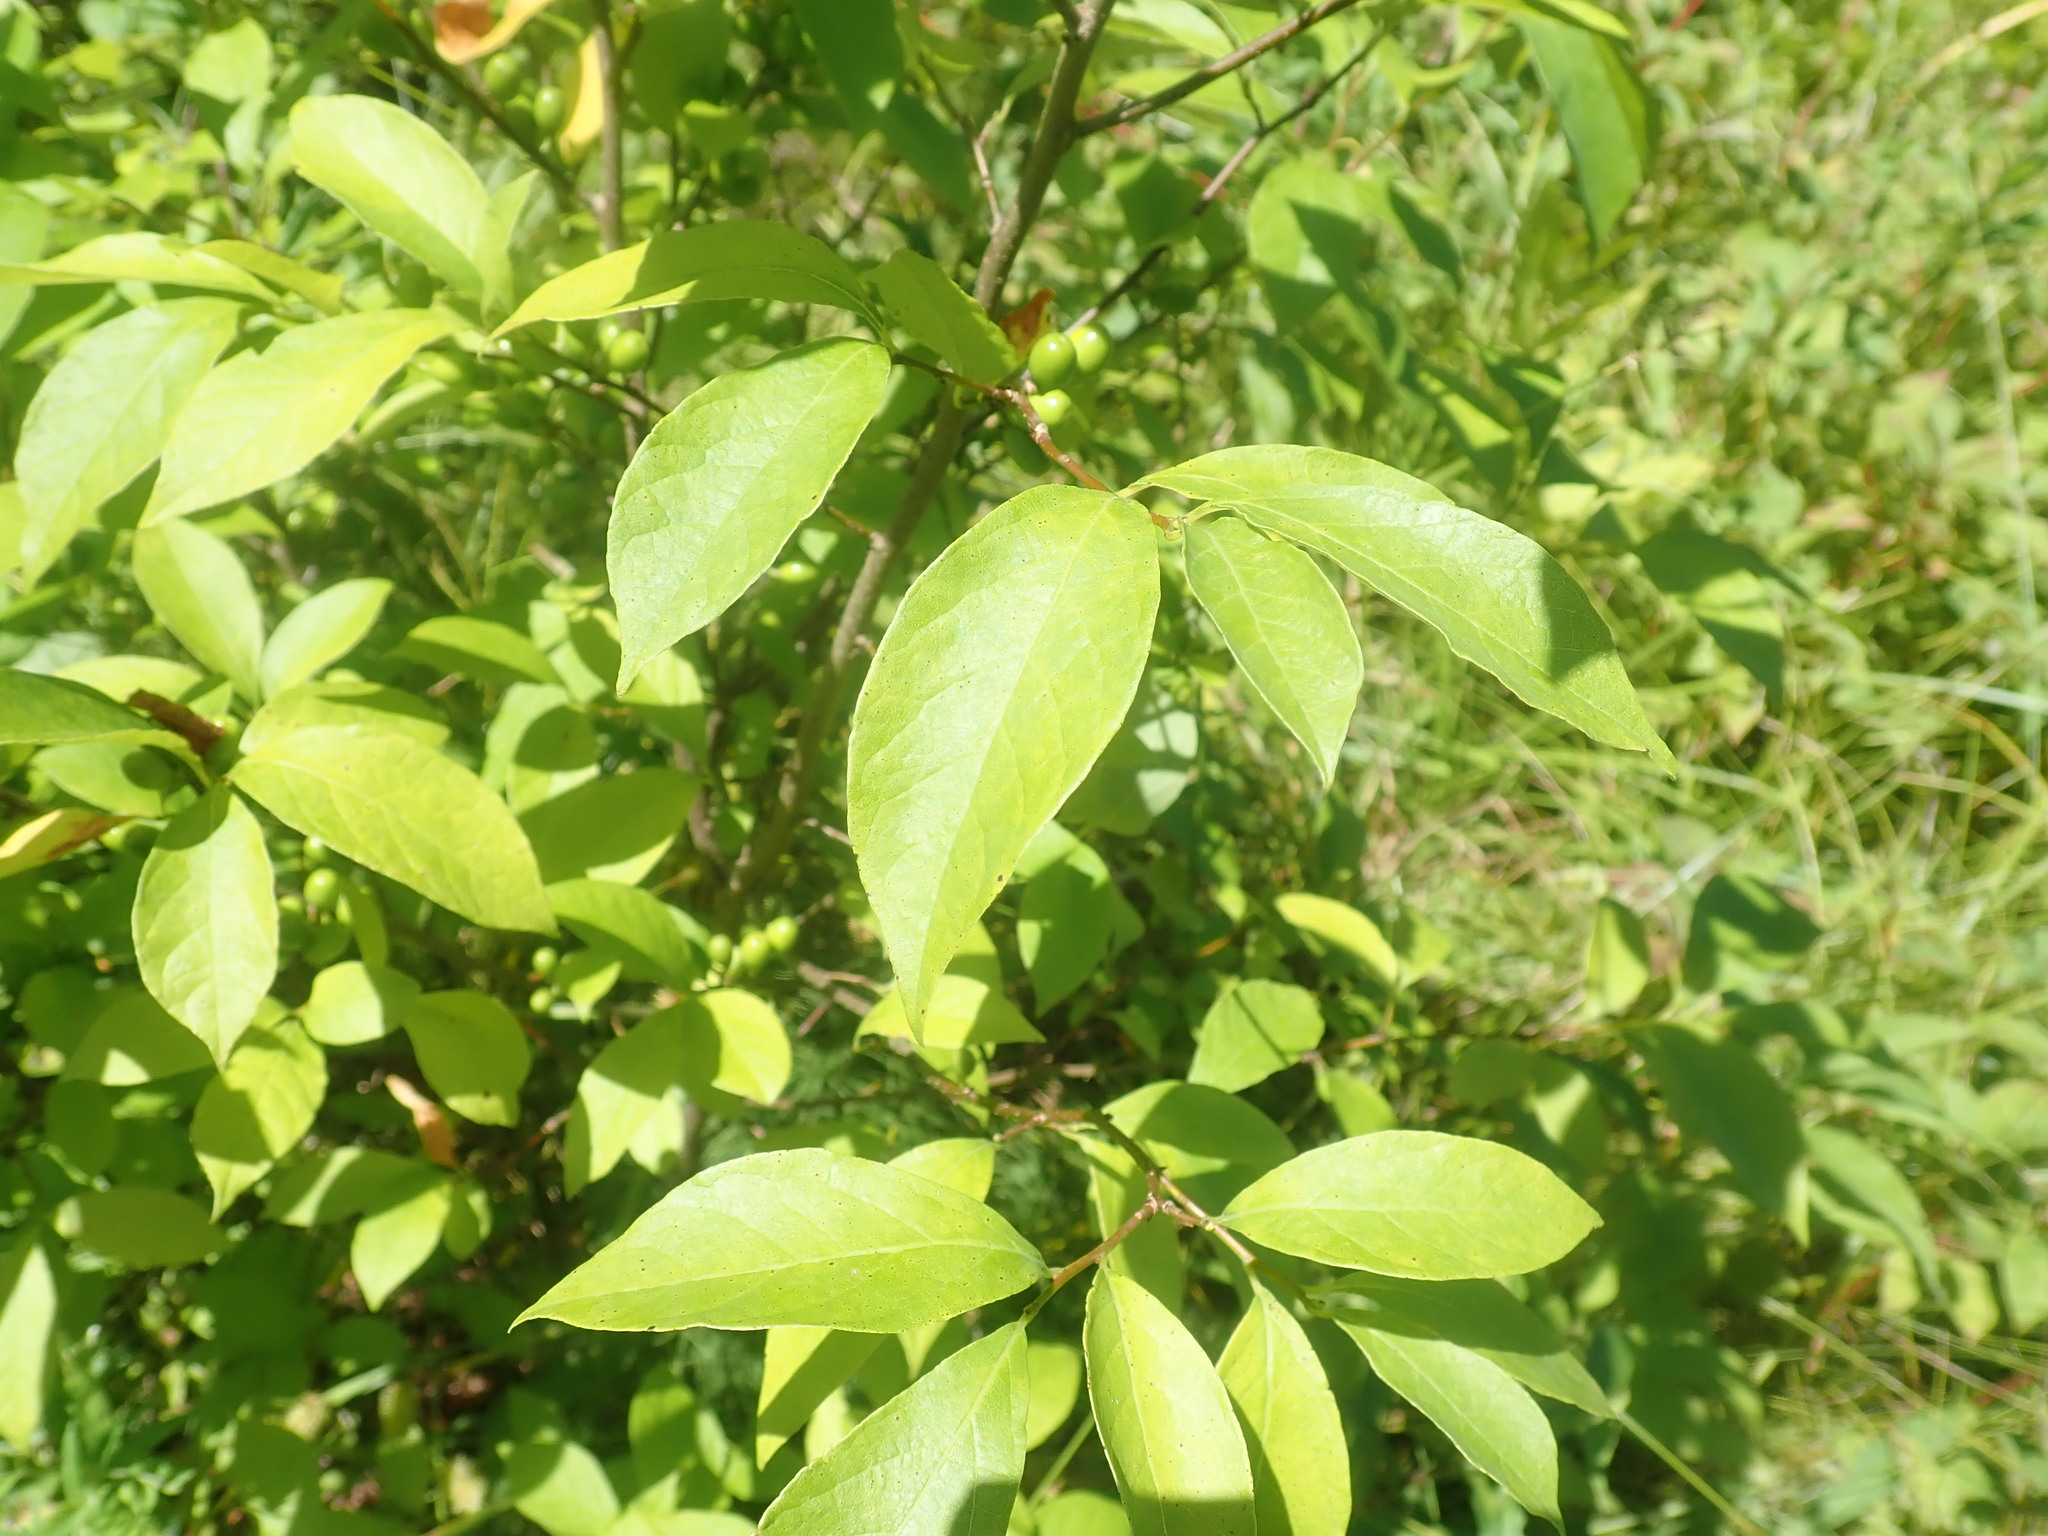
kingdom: Plantae
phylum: Tracheophyta
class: Magnoliopsida
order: Laurales
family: Lauraceae
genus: Lindera
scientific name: Lindera benzoin
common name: Spicebush
